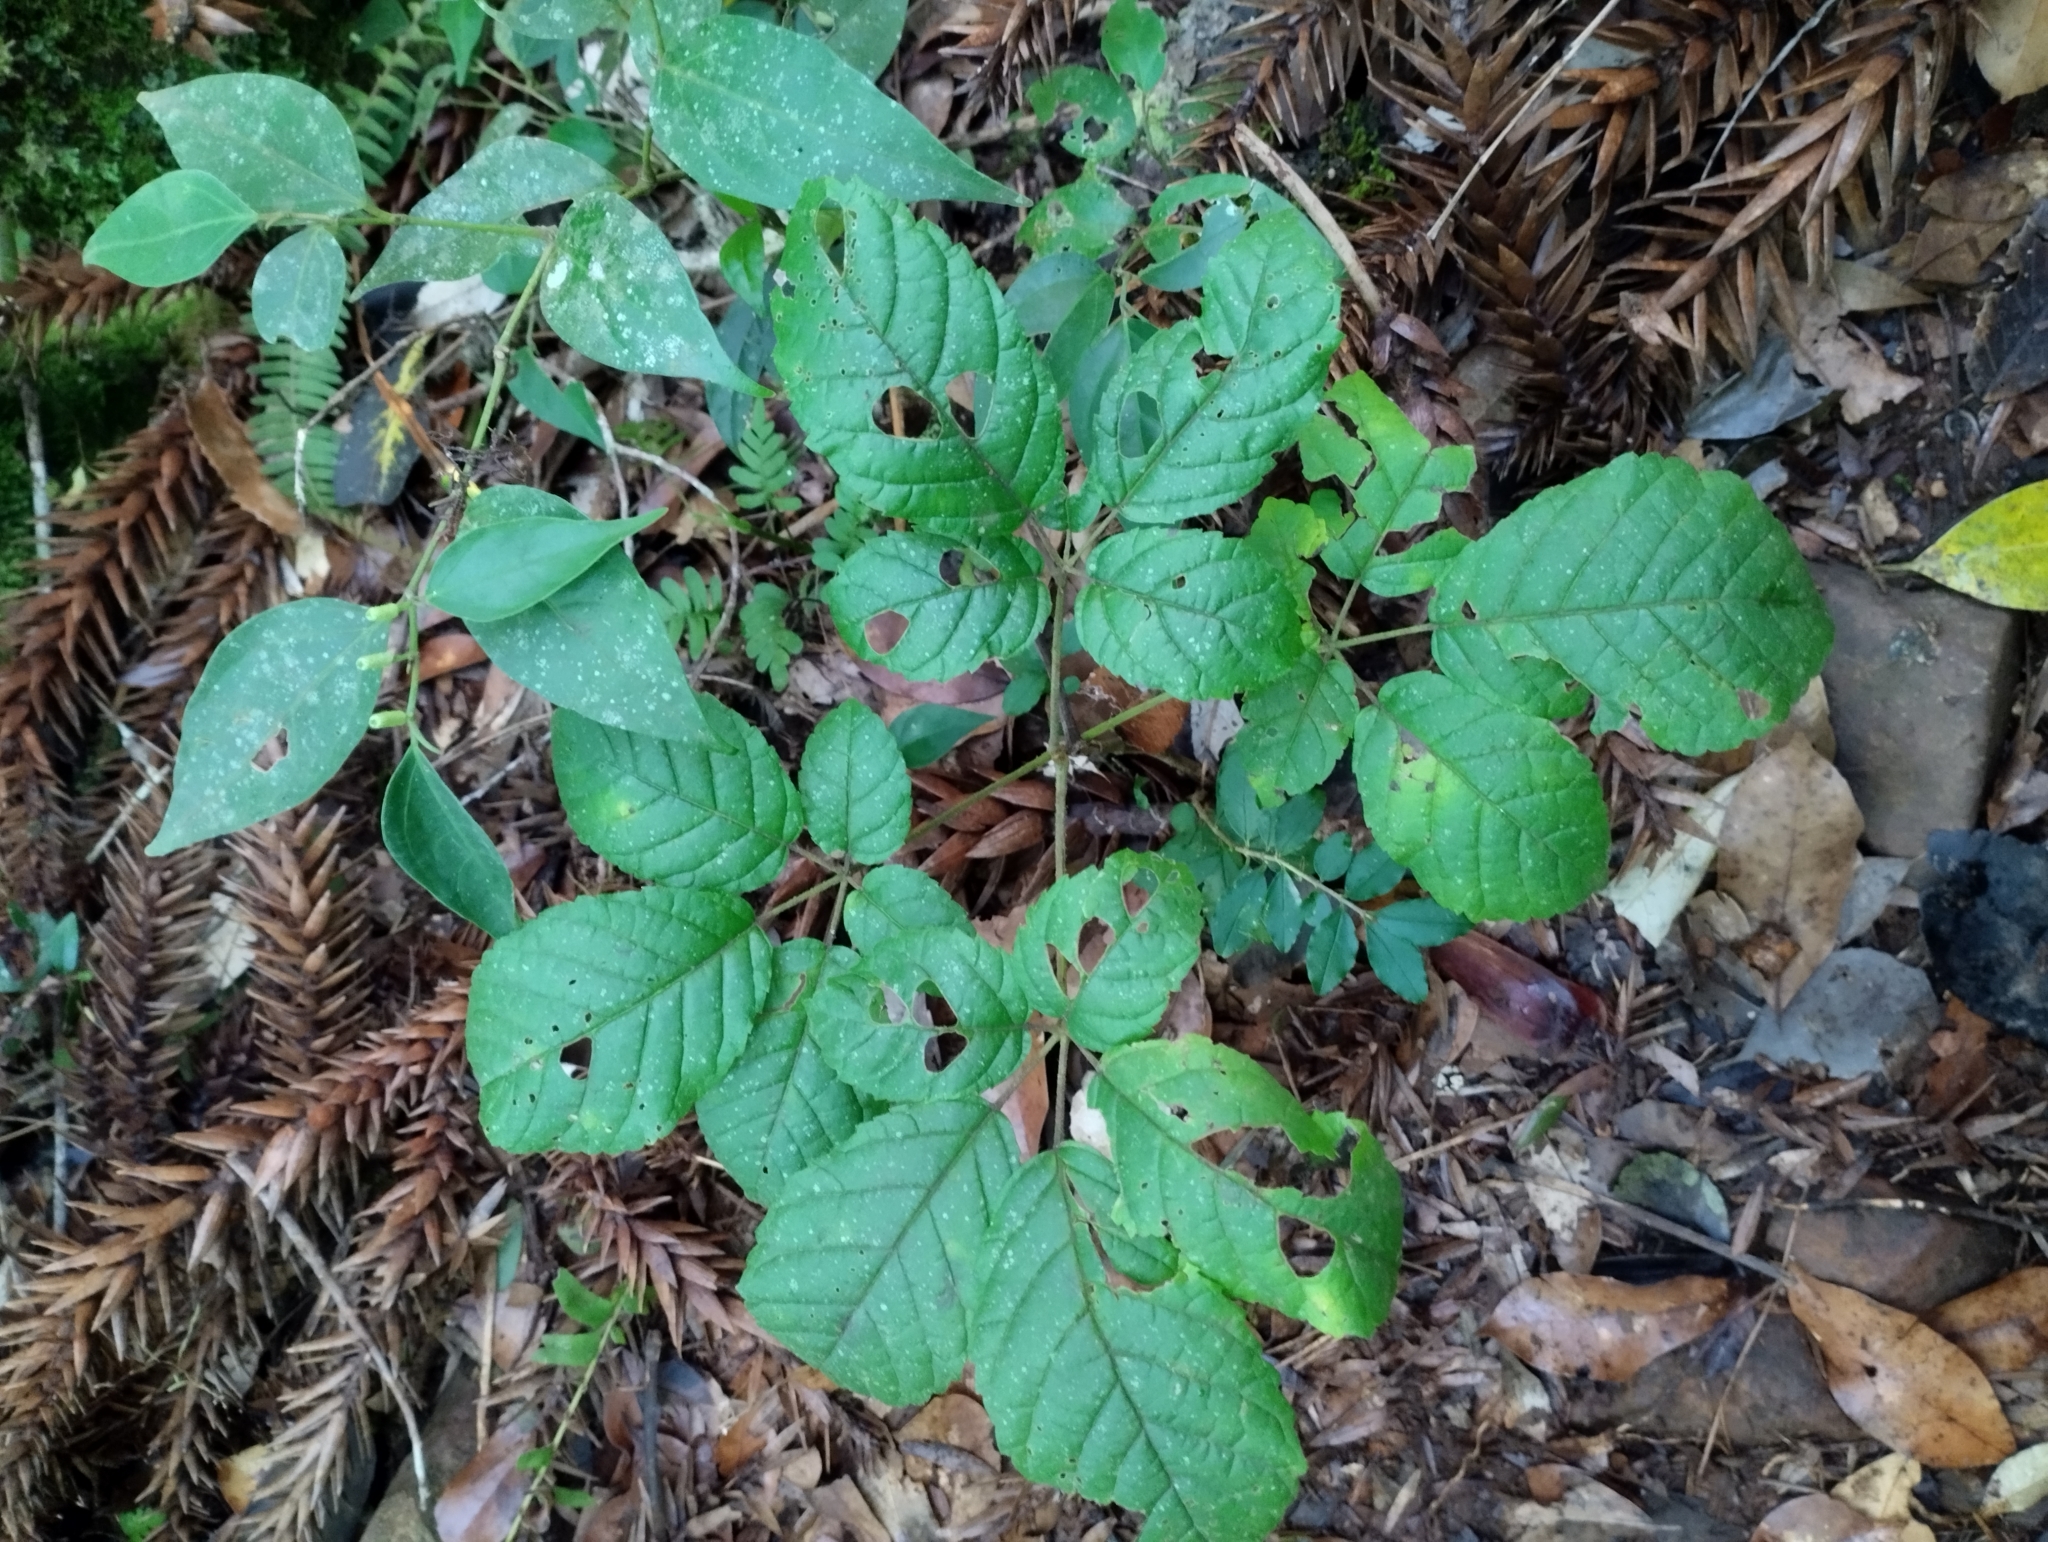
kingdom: Plantae
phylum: Tracheophyta
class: Magnoliopsida
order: Lamiales
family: Bignoniaceae
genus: Handroanthus
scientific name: Handroanthus chrysotrichus
